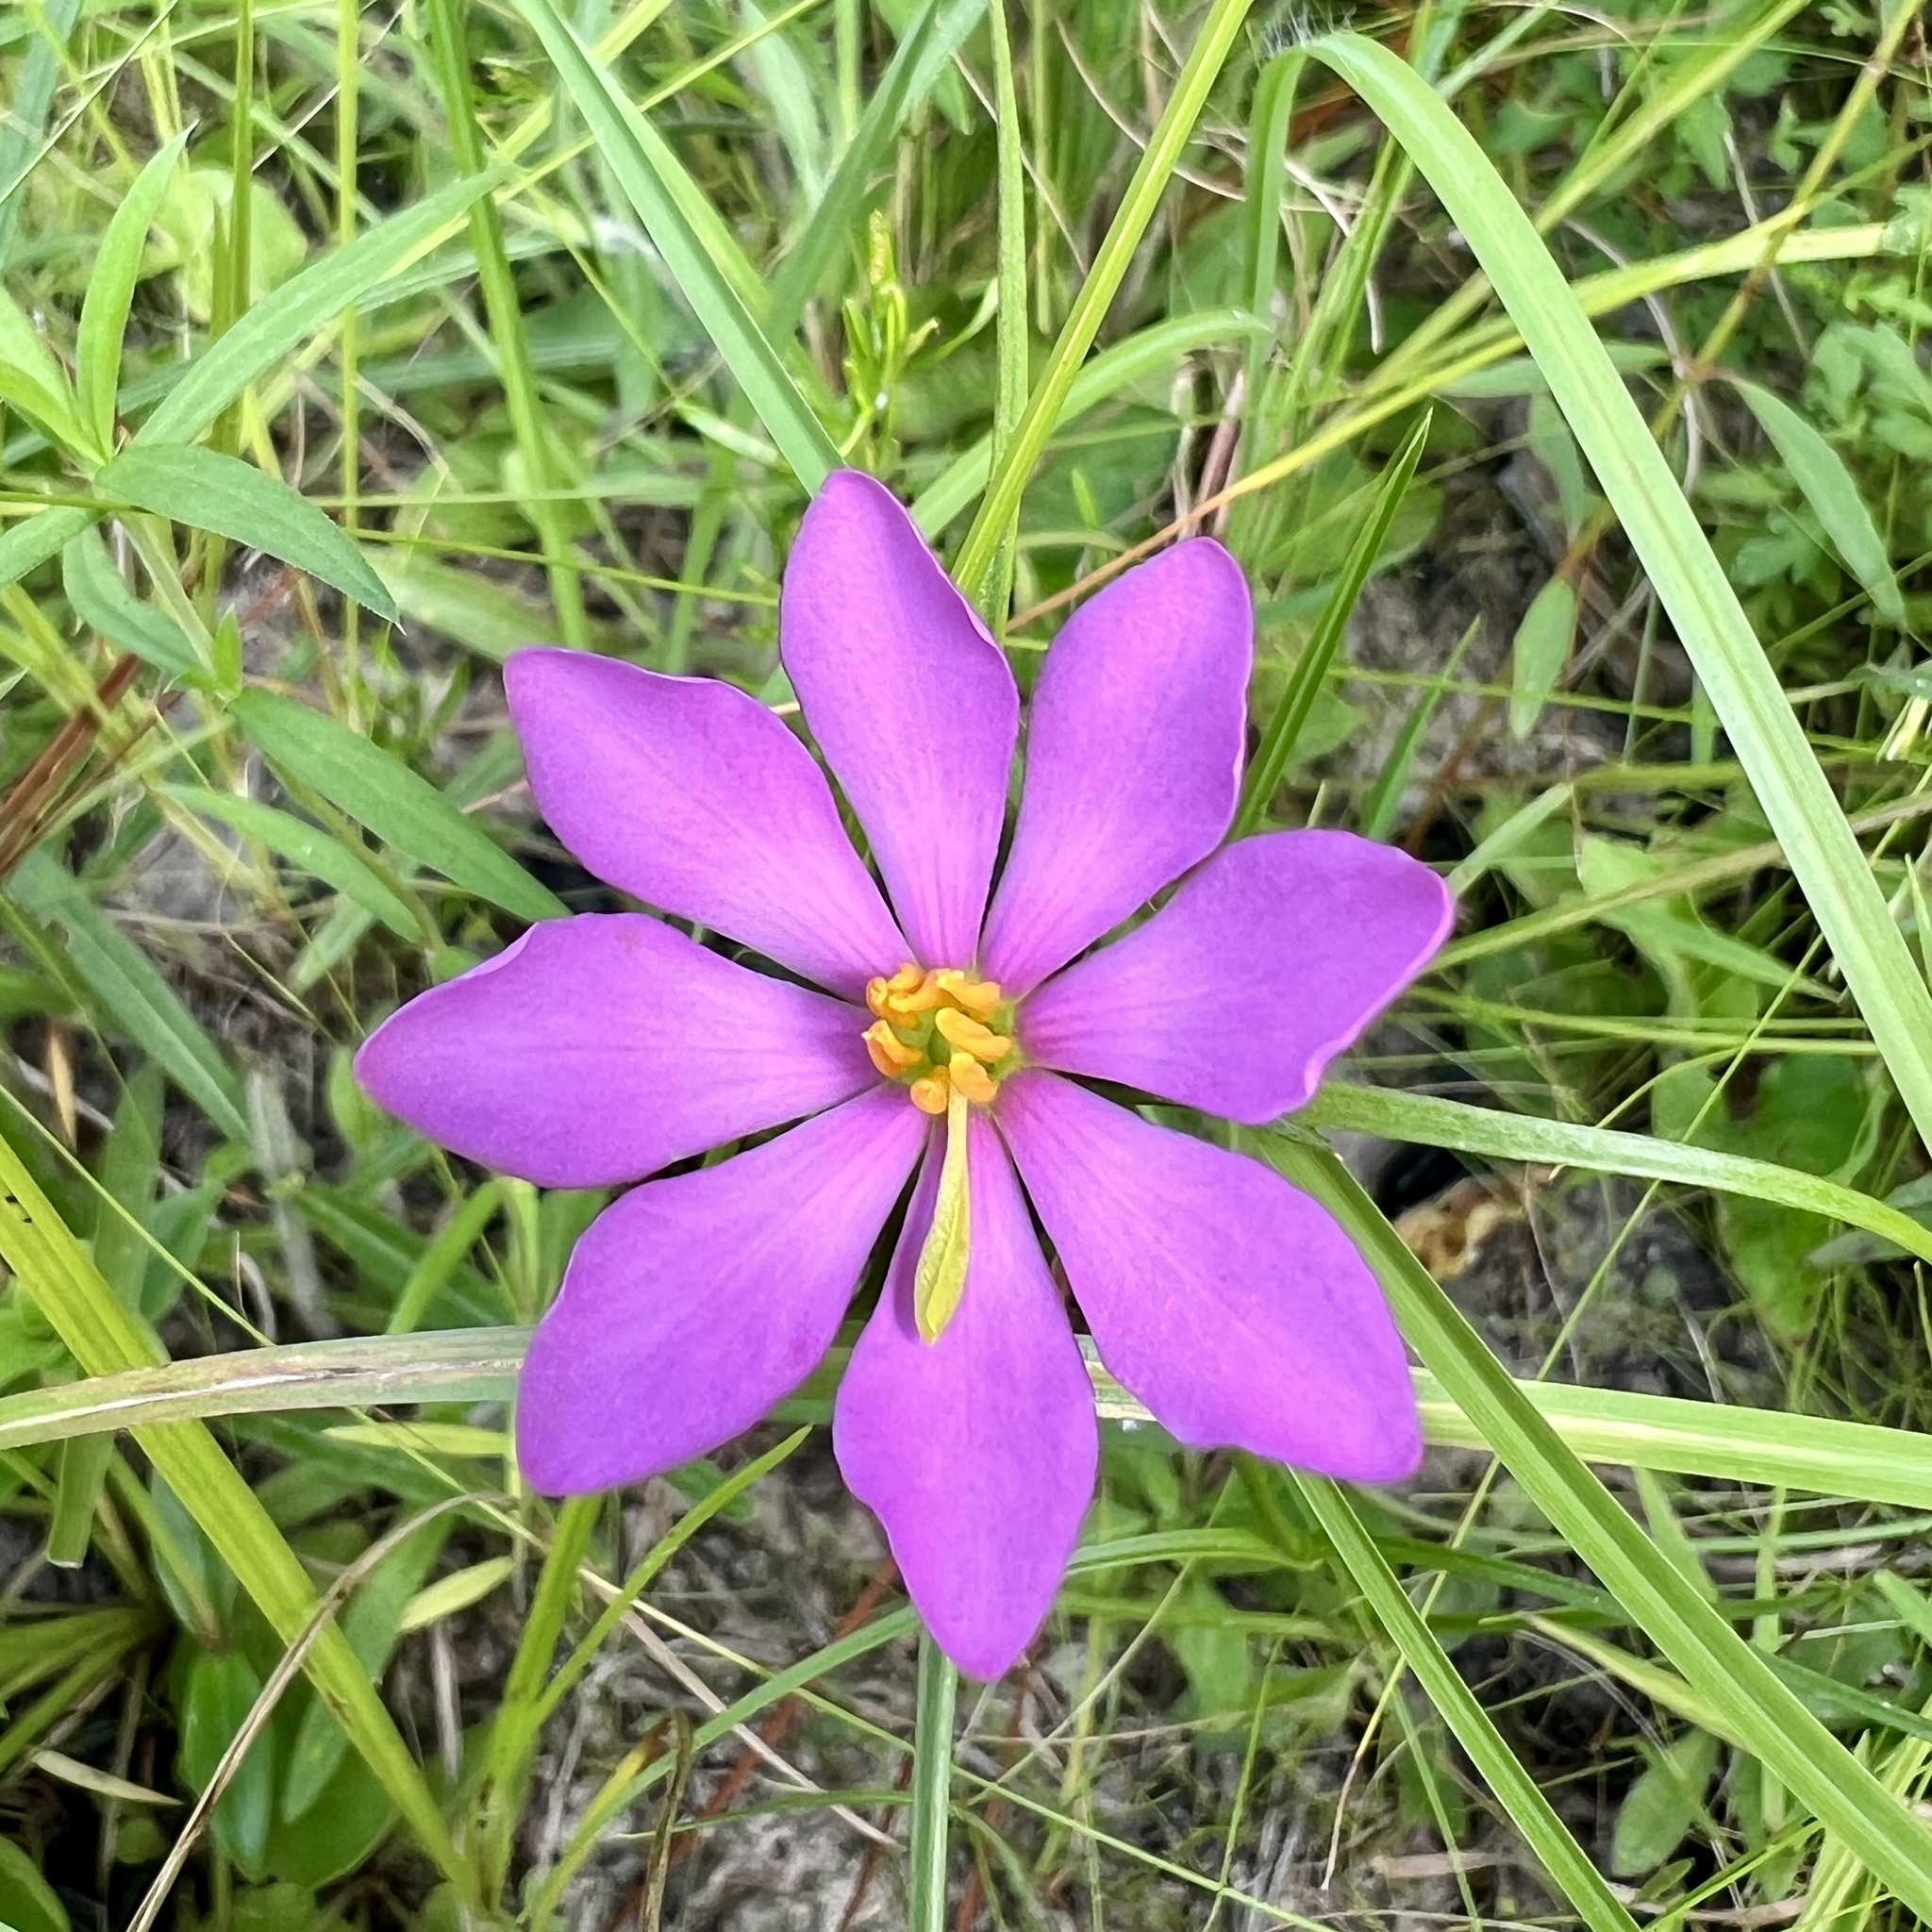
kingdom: Plantae
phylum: Tracheophyta
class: Magnoliopsida
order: Gentianales
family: Gentianaceae
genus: Sabatia
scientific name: Sabatia gentianoides
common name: Pinewoods rose-gentian
